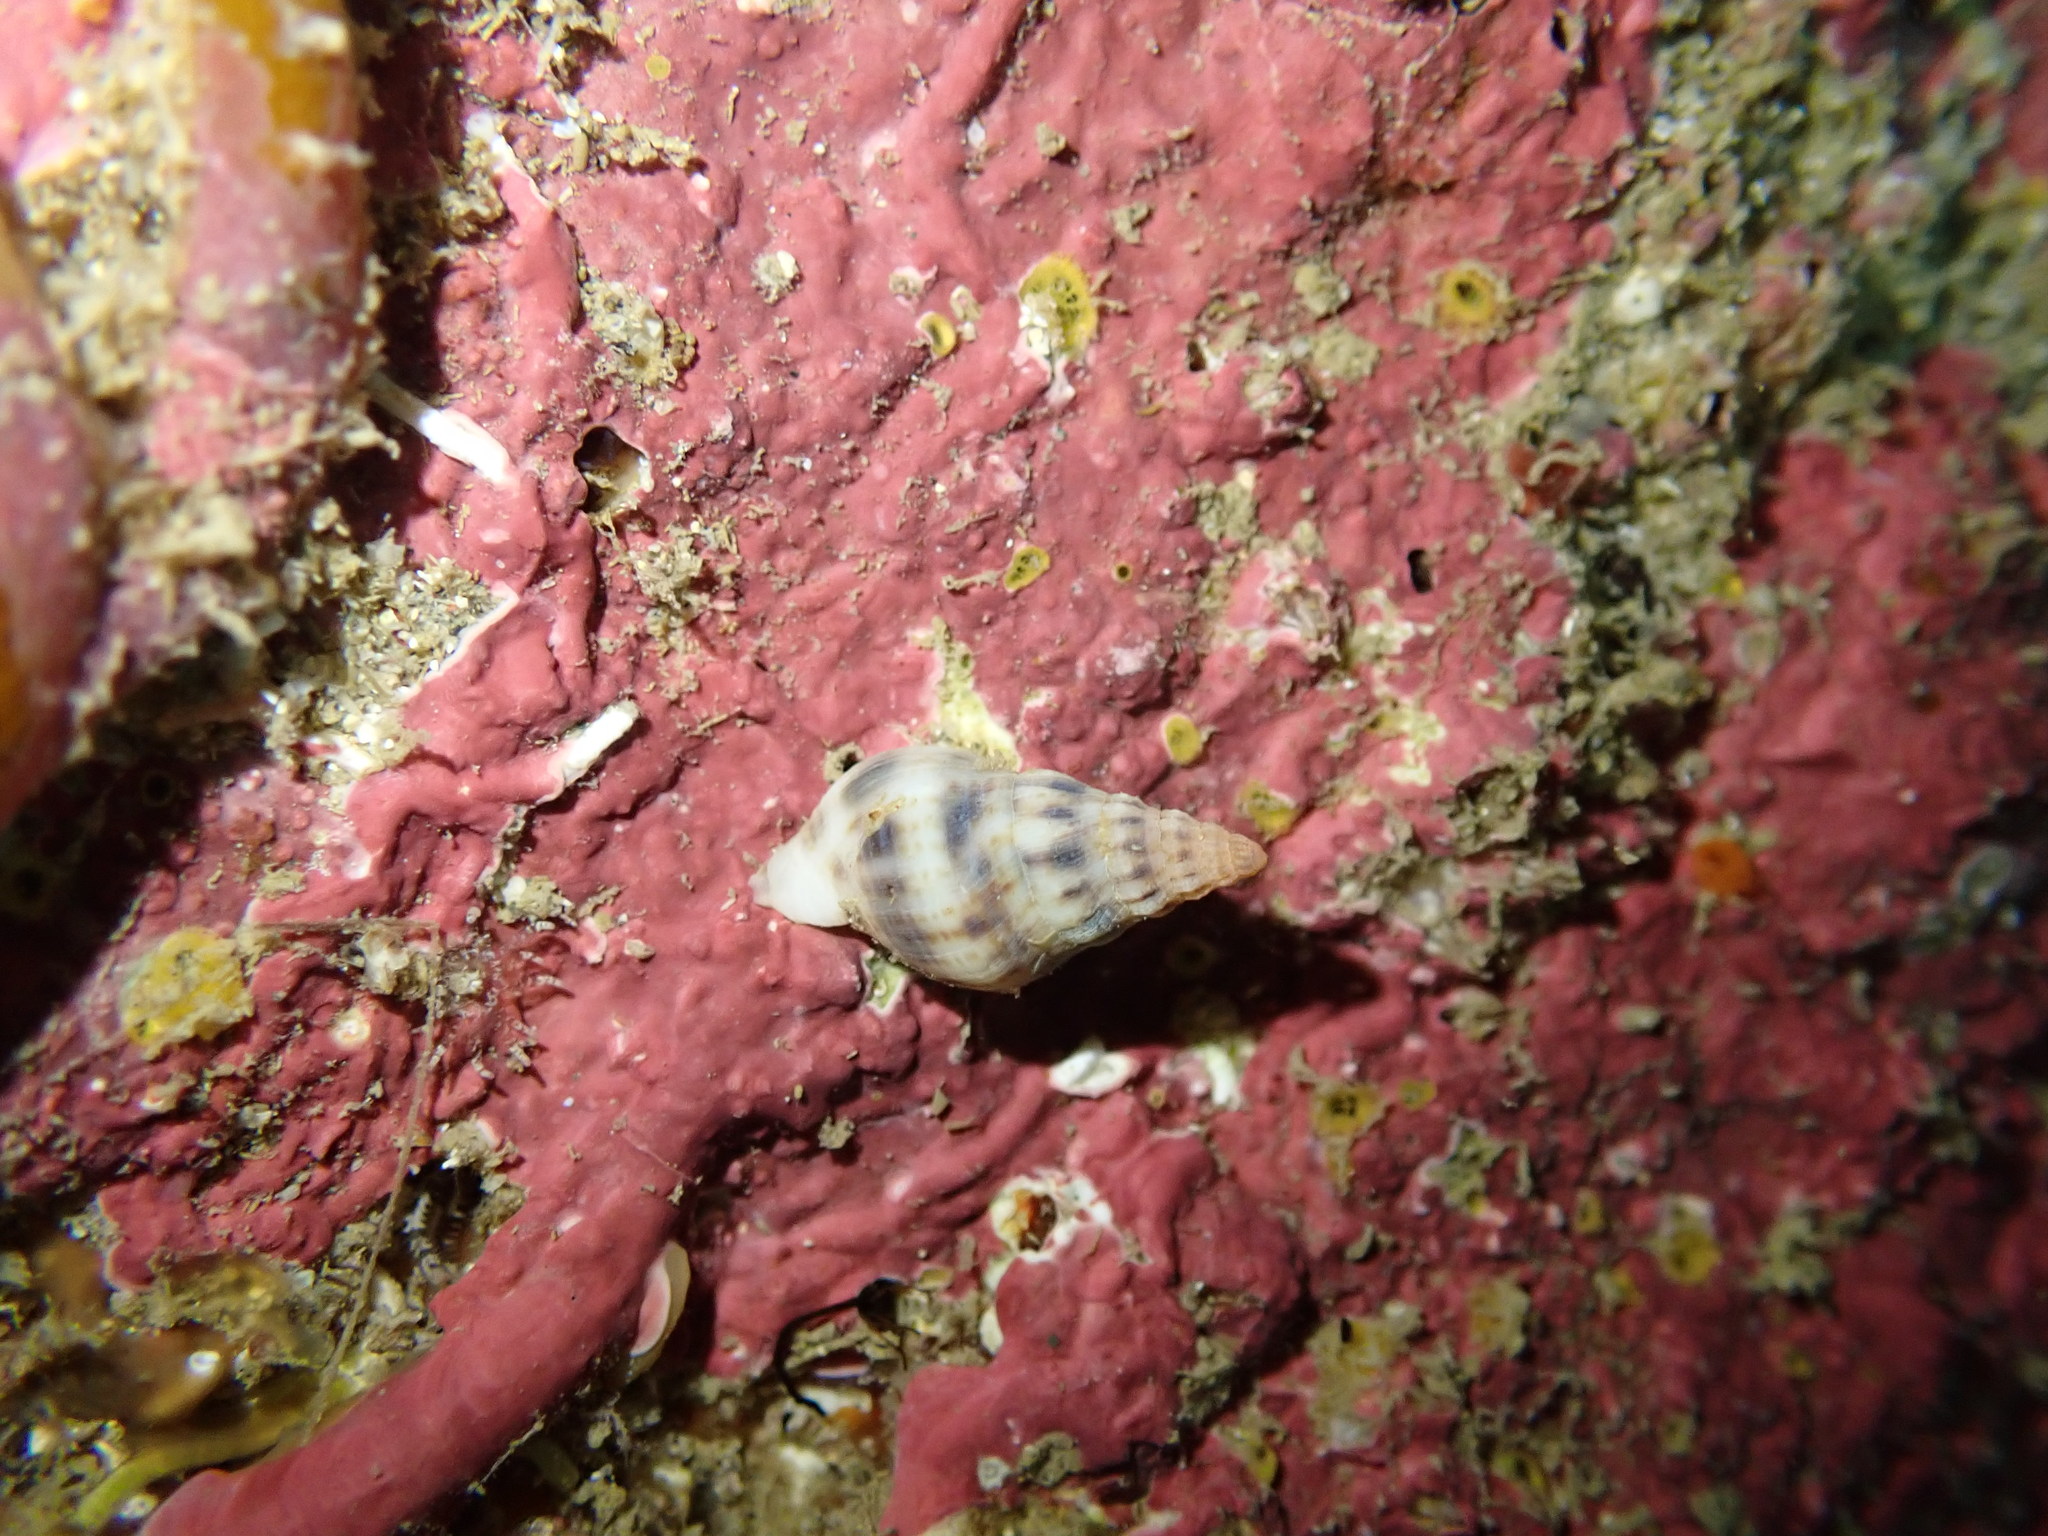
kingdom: Animalia
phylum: Mollusca
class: Gastropoda
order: Neogastropoda
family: Tudiclidae
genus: Buccinulum
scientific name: Buccinulum vittatum
